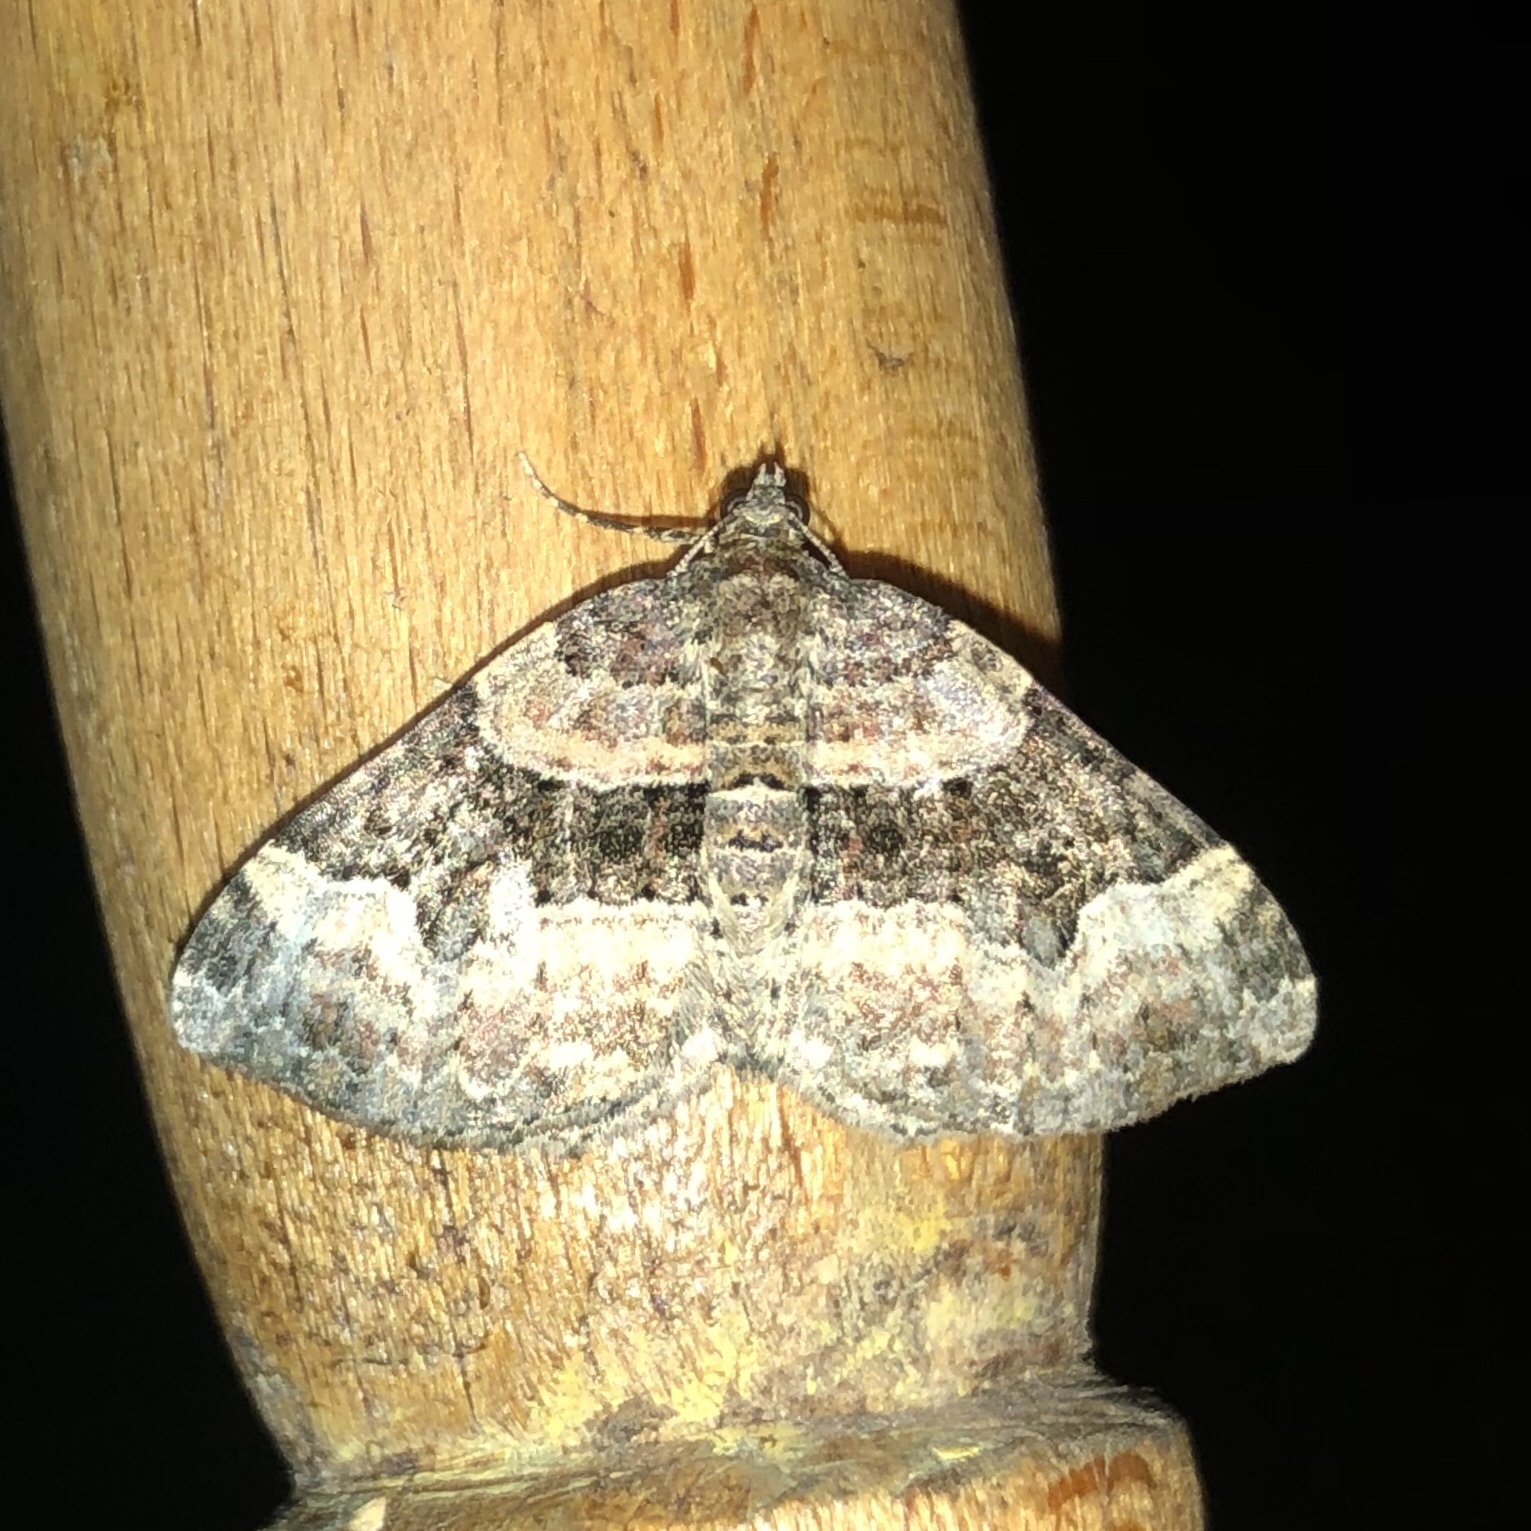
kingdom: Animalia
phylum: Arthropoda
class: Insecta
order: Lepidoptera
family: Geometridae
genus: Xanthorhoe
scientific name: Xanthorhoe lacustrata
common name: Toothed brown carpet
